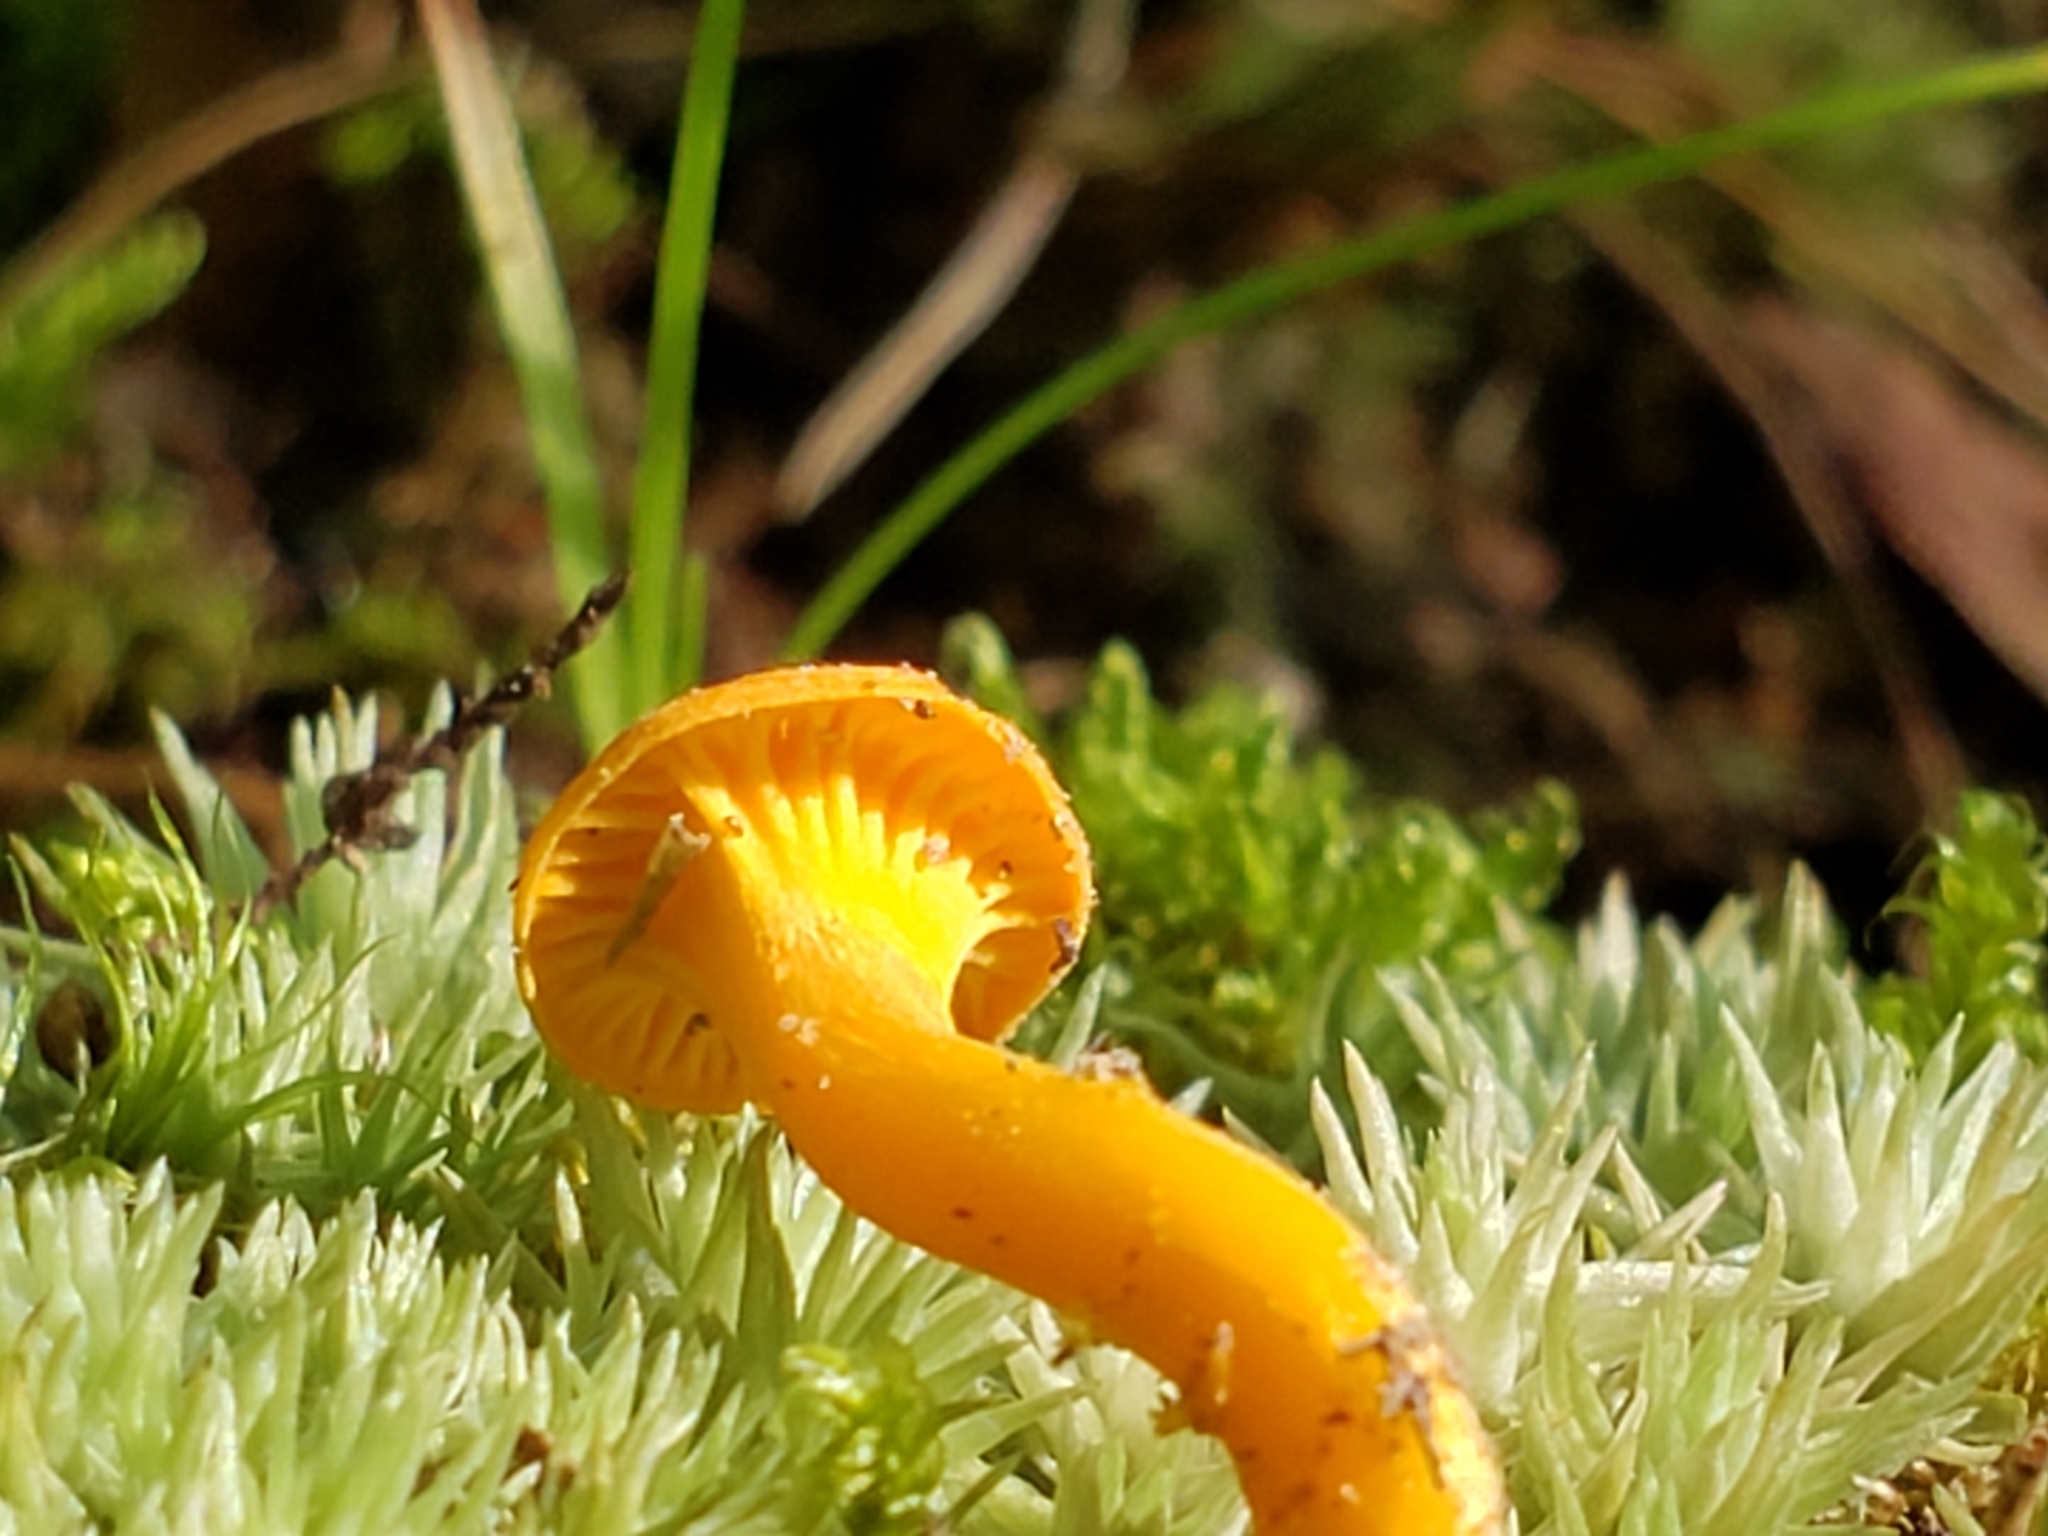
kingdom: Fungi
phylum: Basidiomycota
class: Agaricomycetes
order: Cantharellales
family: Hydnaceae
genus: Cantharellus
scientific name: Cantharellus minor
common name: Small chanterelle
